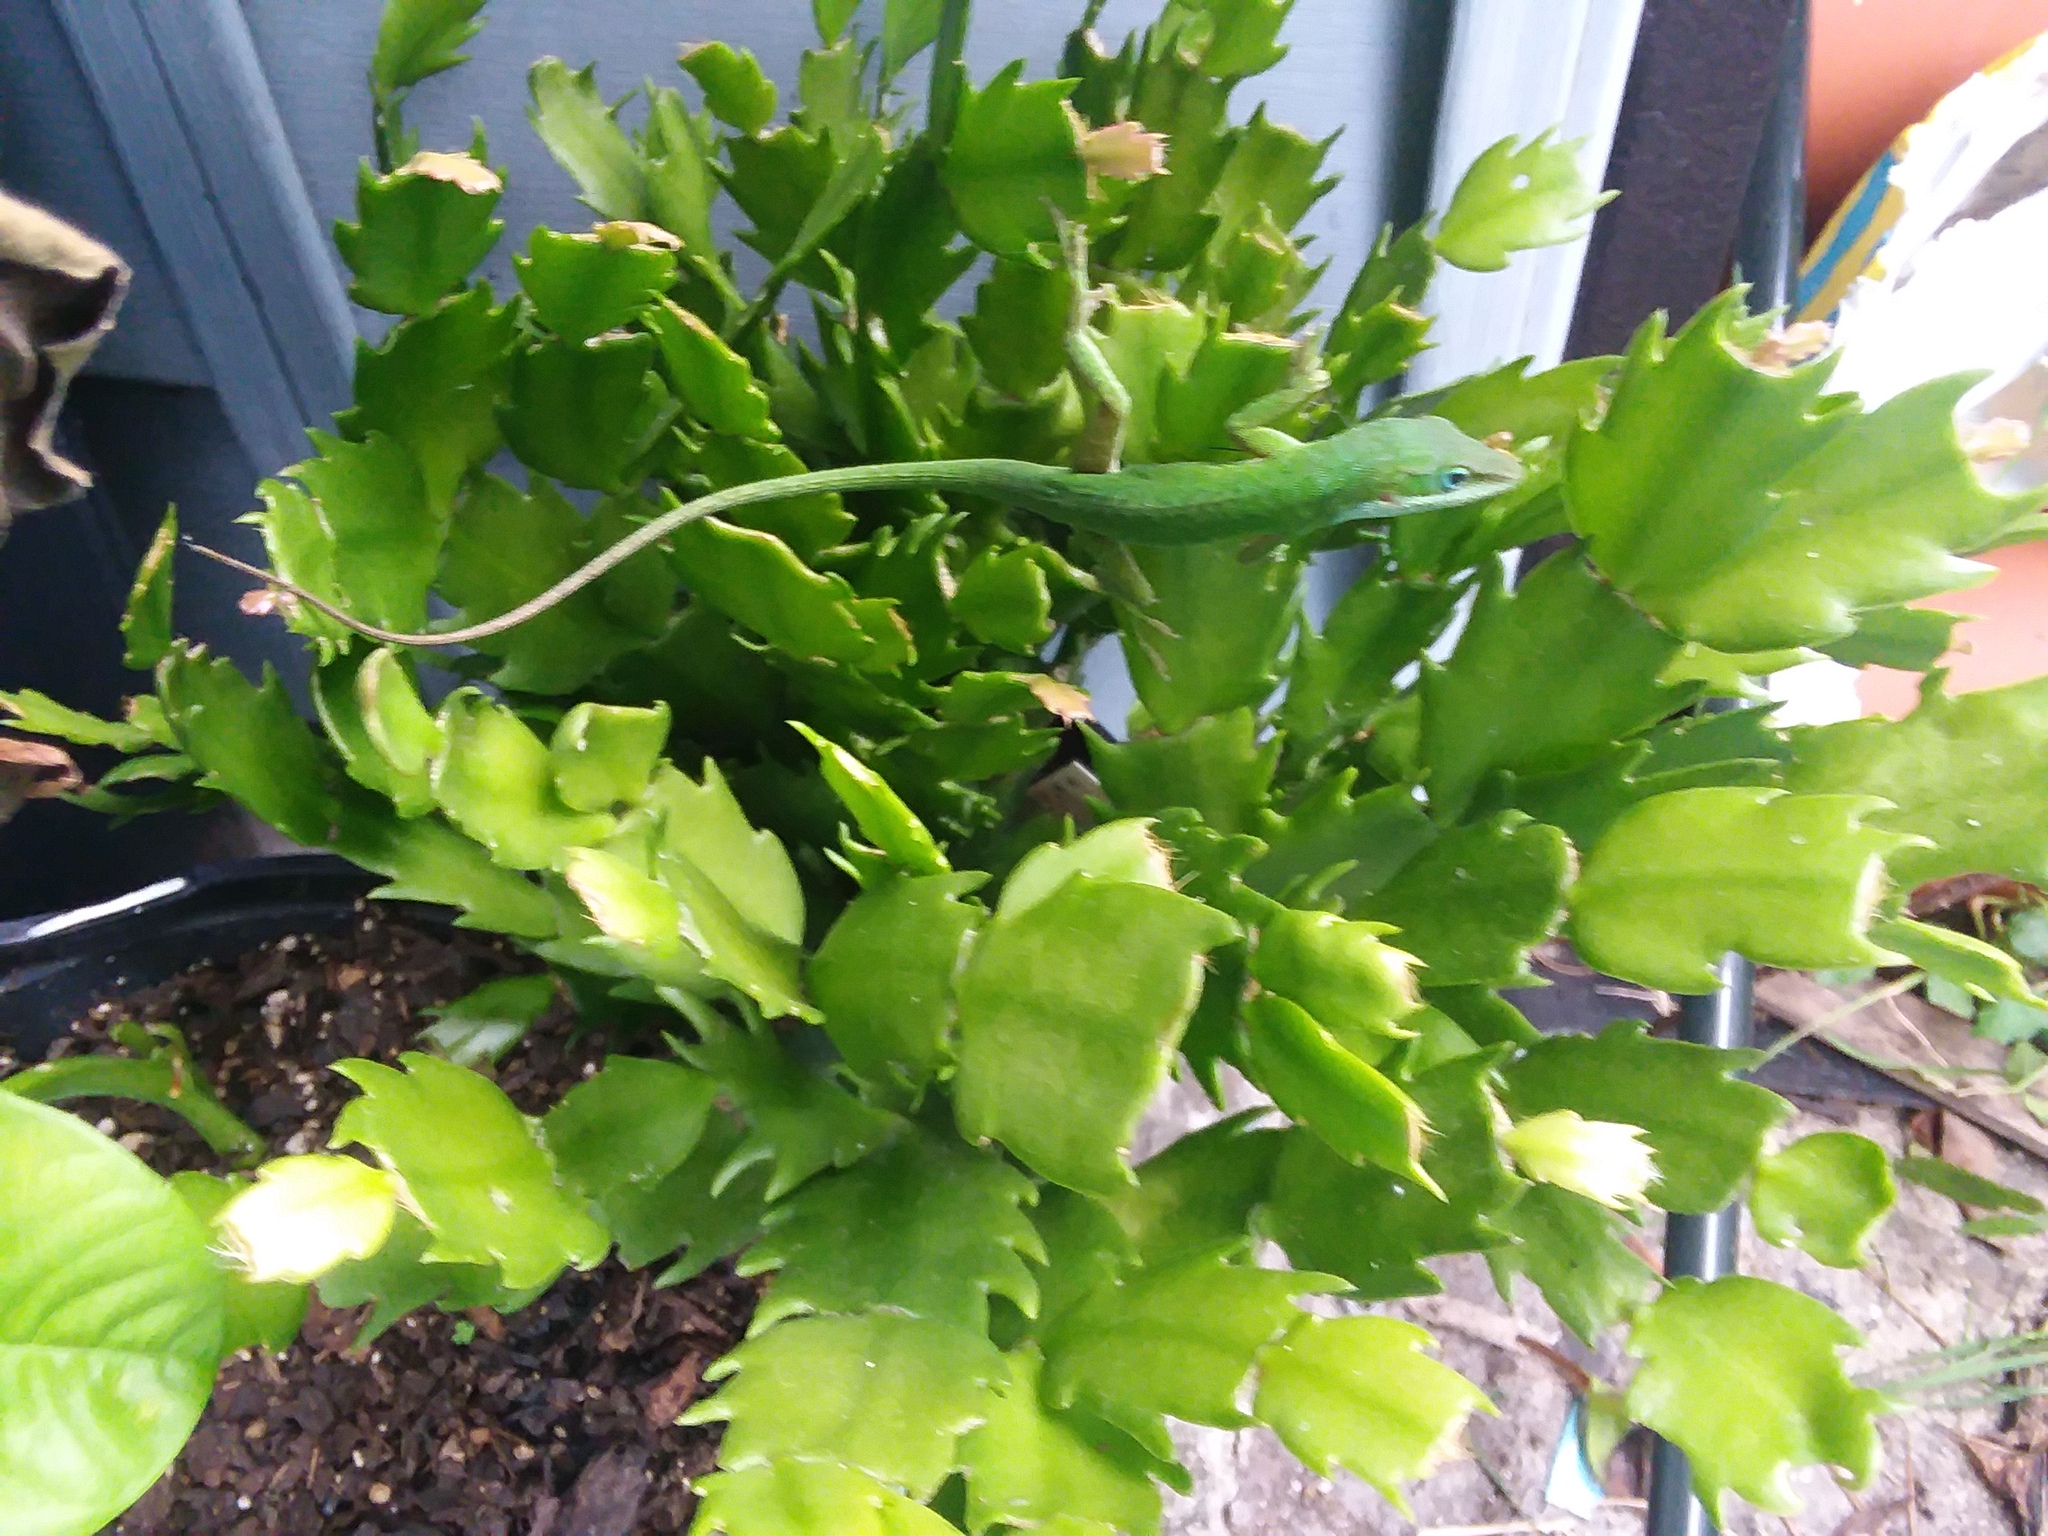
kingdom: Animalia
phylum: Chordata
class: Squamata
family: Dactyloidae
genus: Anolis
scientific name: Anolis carolinensis
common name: Green anole
